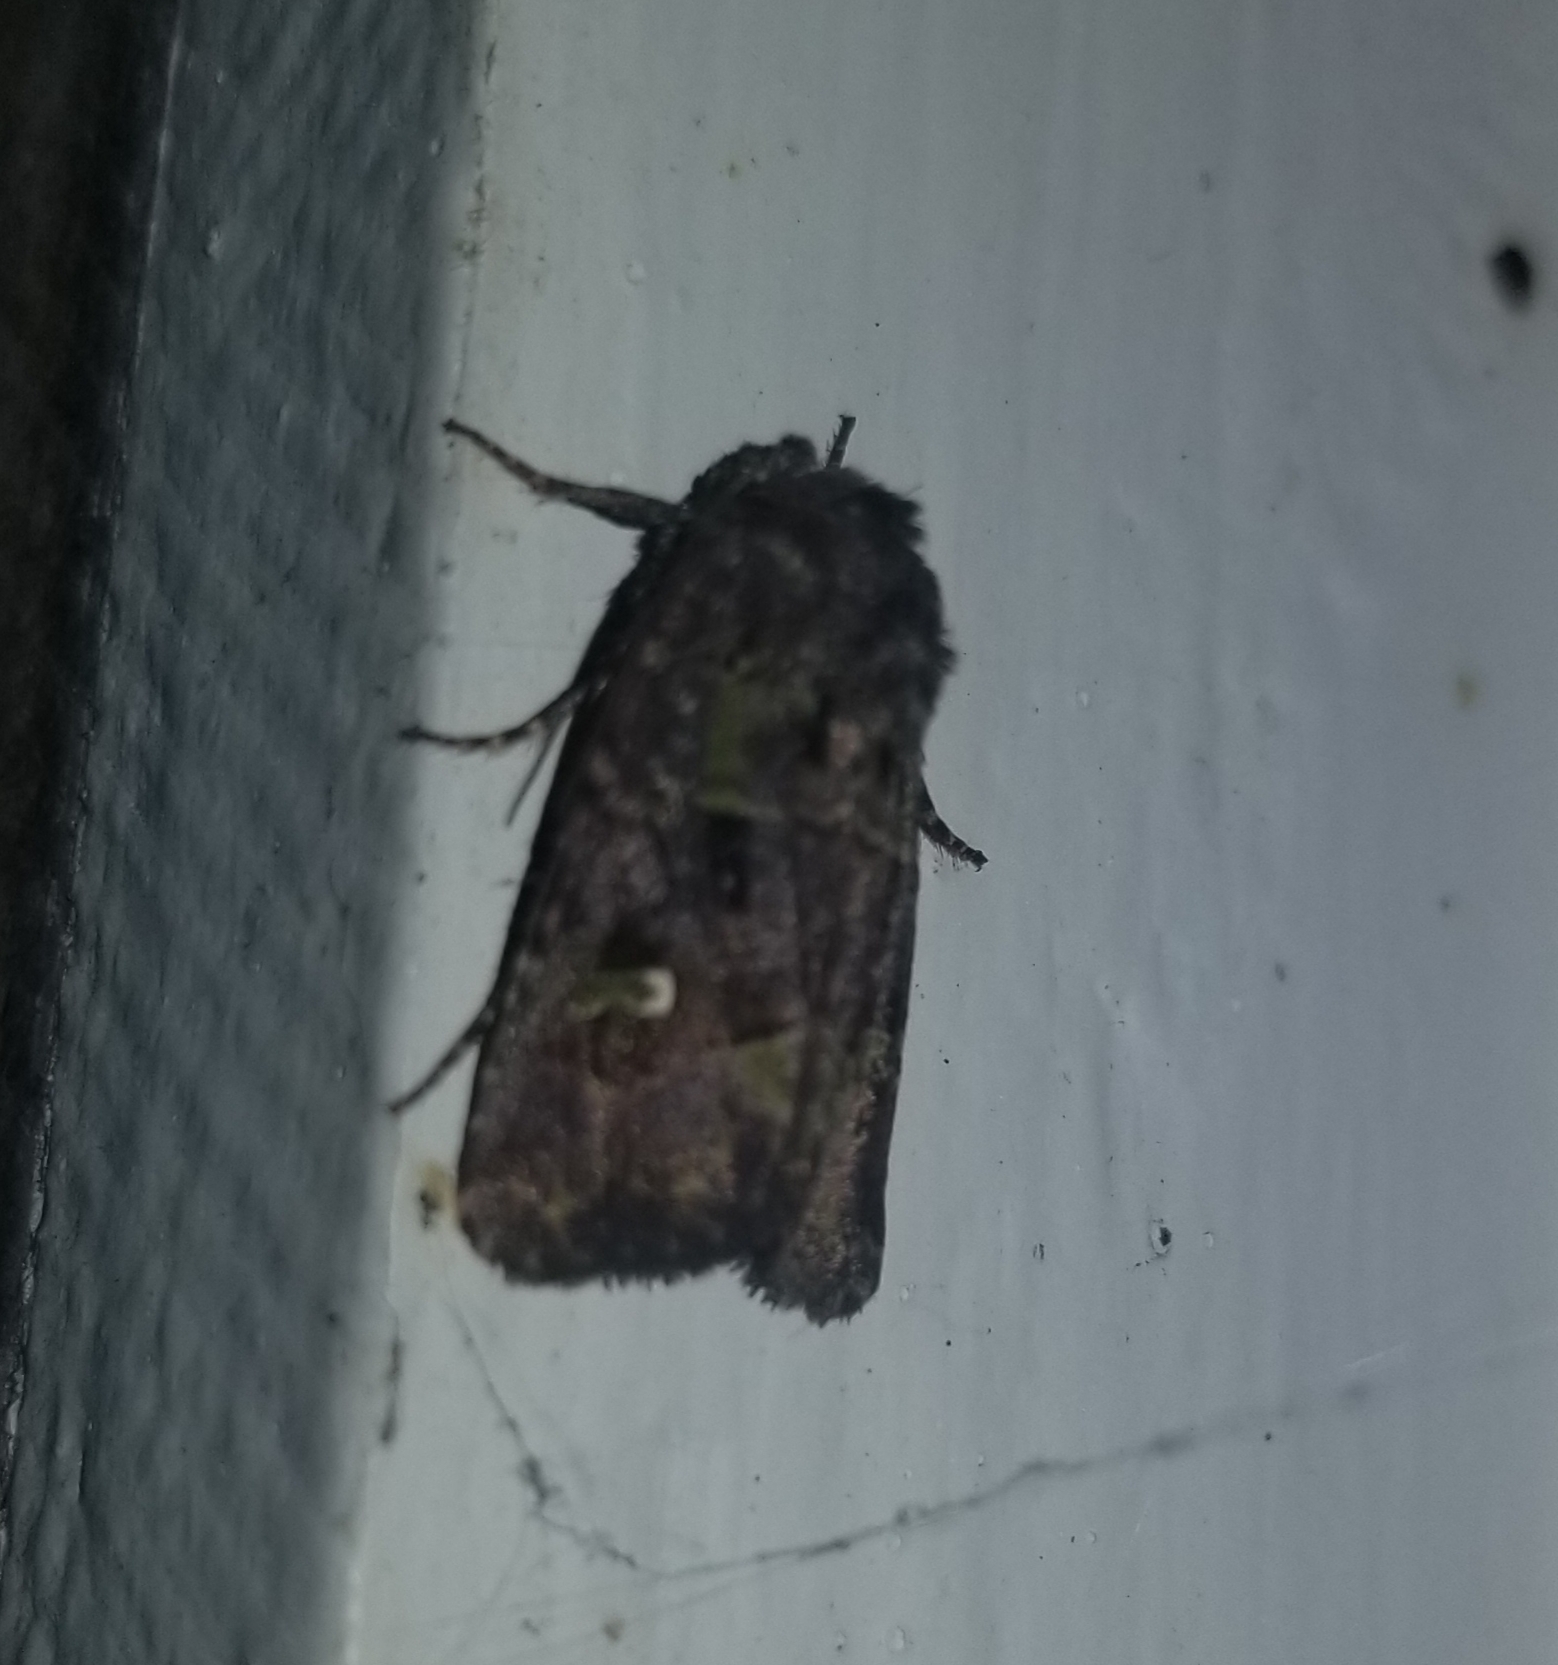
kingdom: Animalia
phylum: Arthropoda
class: Insecta
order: Lepidoptera
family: Noctuidae
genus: Lacinipolia
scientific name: Lacinipolia renigera
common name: Kidney-spotted minor
